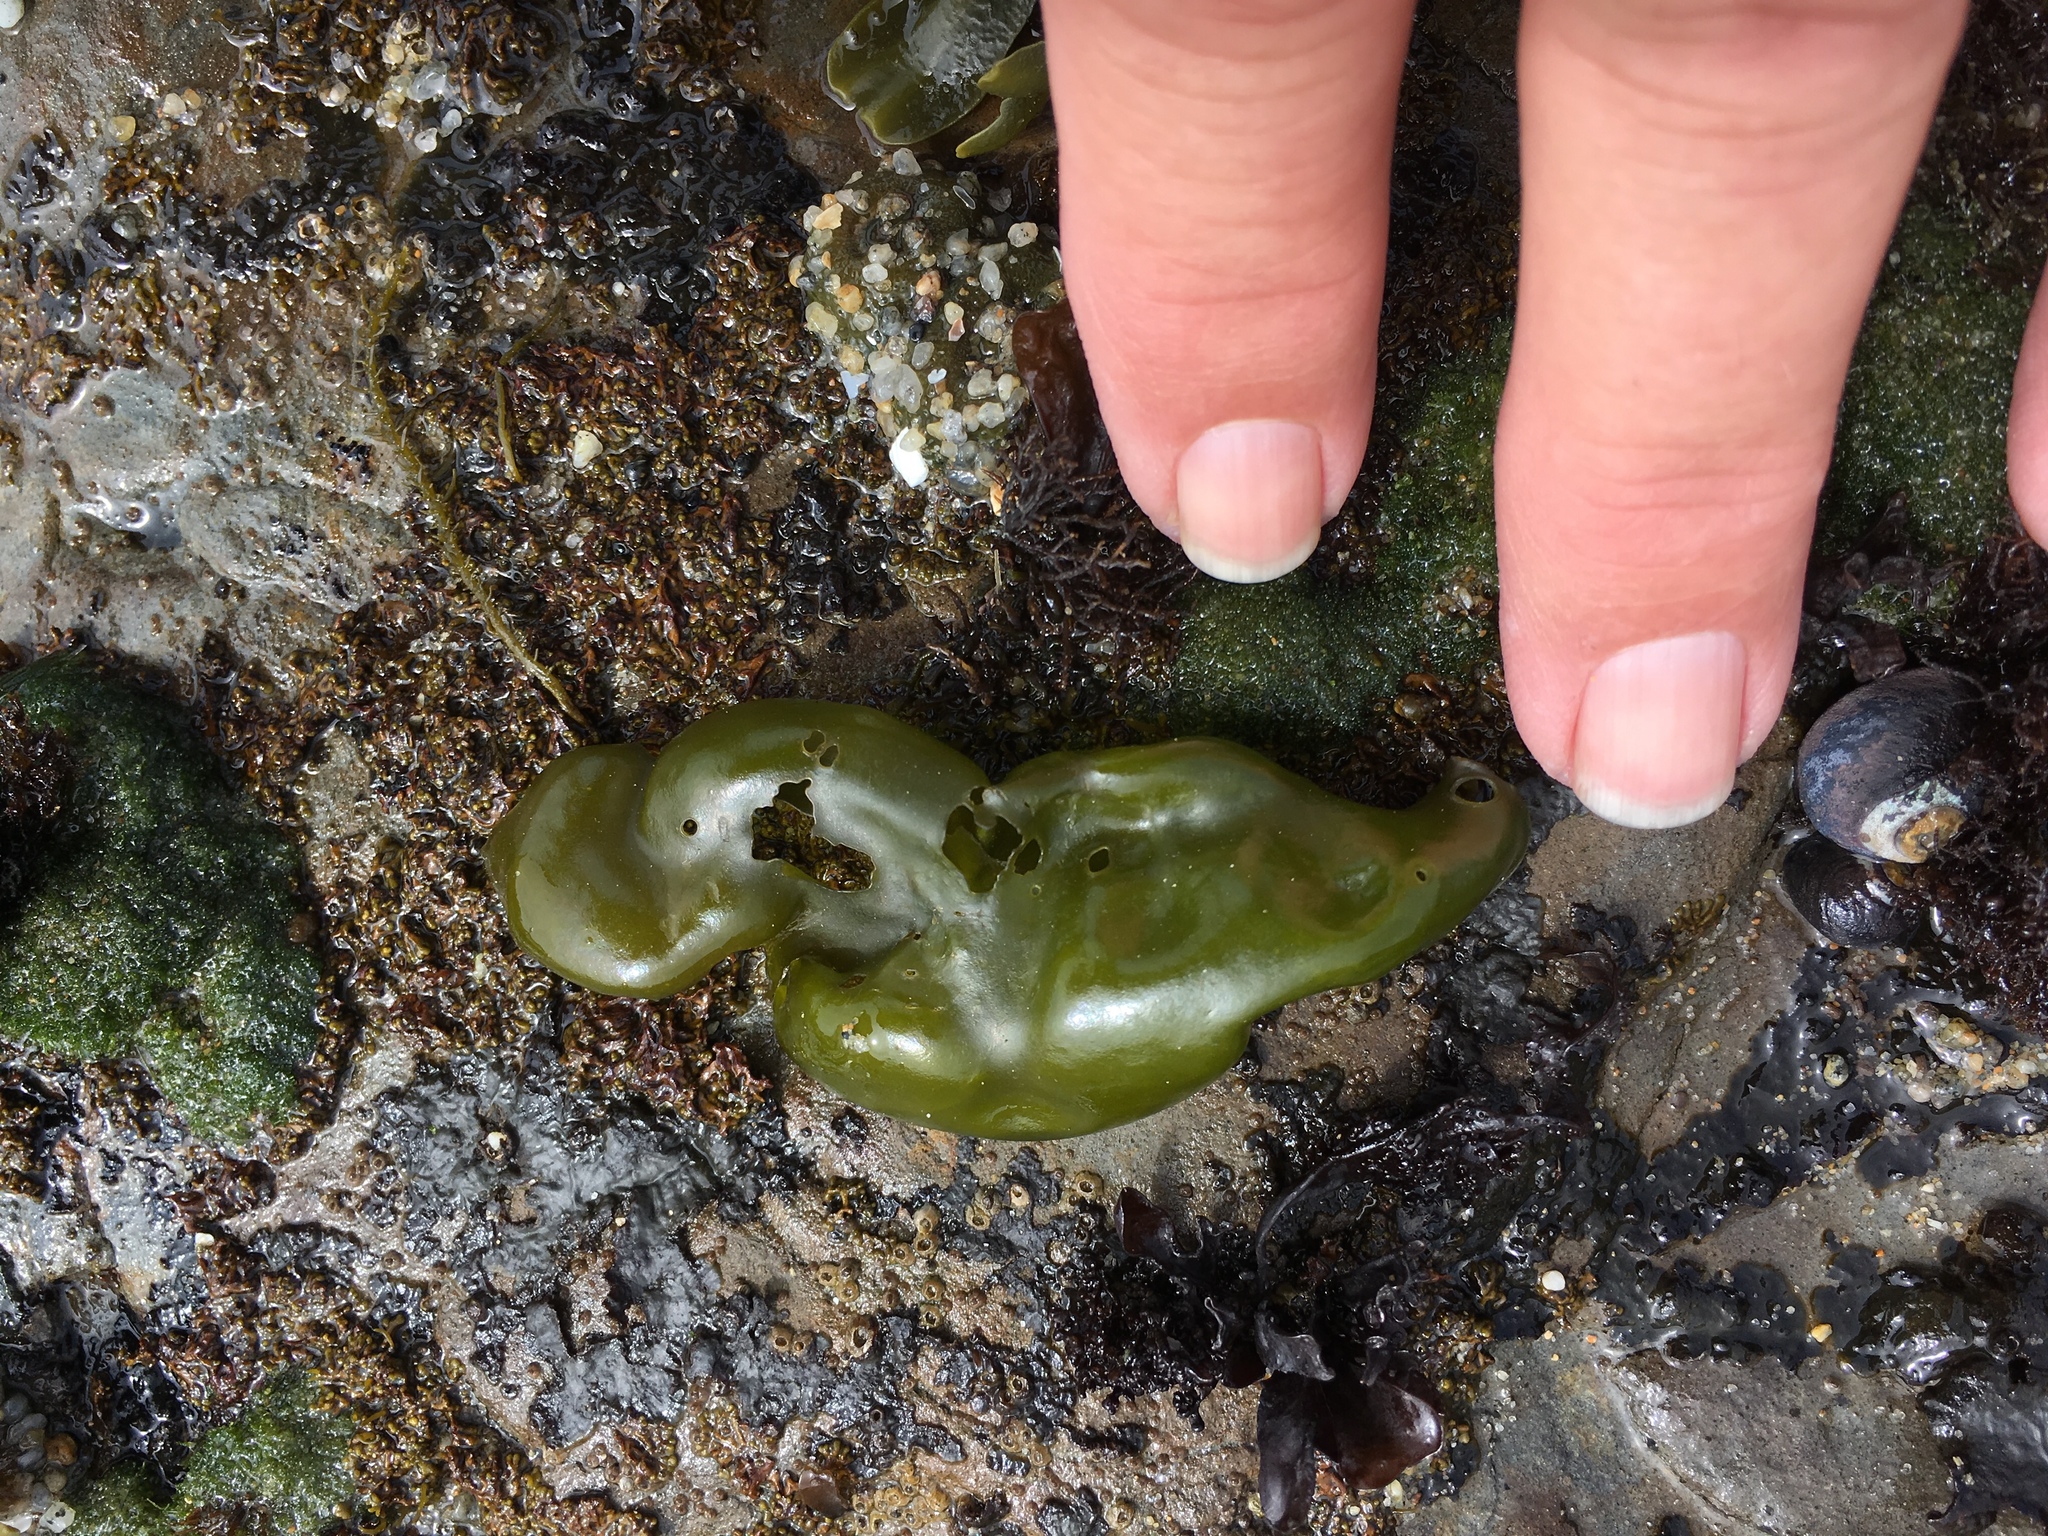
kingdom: Plantae
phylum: Rhodophyta
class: Florideophyceae
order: Gigartinales
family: Gigartinaceae
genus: Mazzaella
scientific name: Mazzaella flaccida
